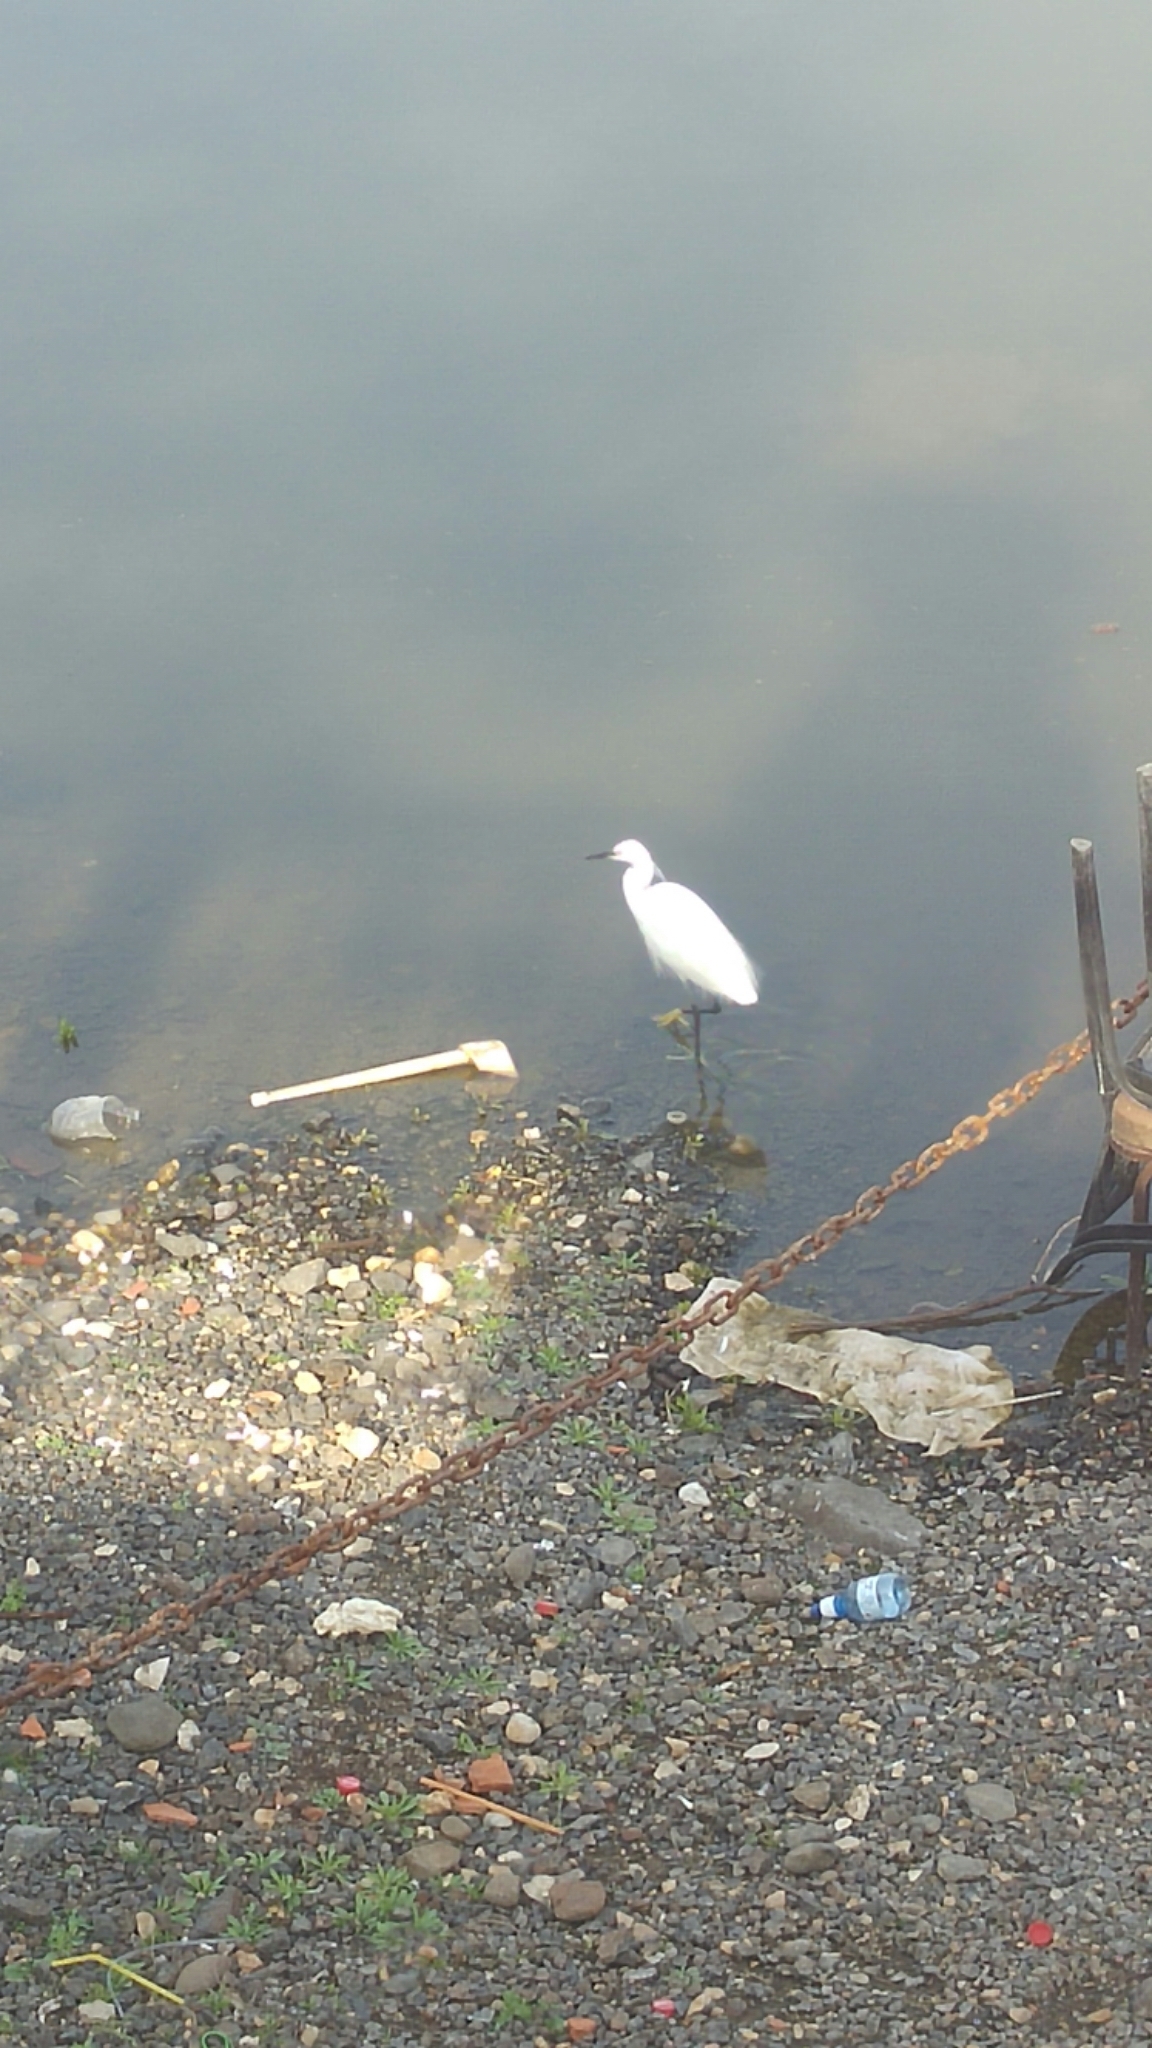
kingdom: Animalia
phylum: Chordata
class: Aves
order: Pelecaniformes
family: Ardeidae
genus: Egretta
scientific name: Egretta garzetta
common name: Little egret
